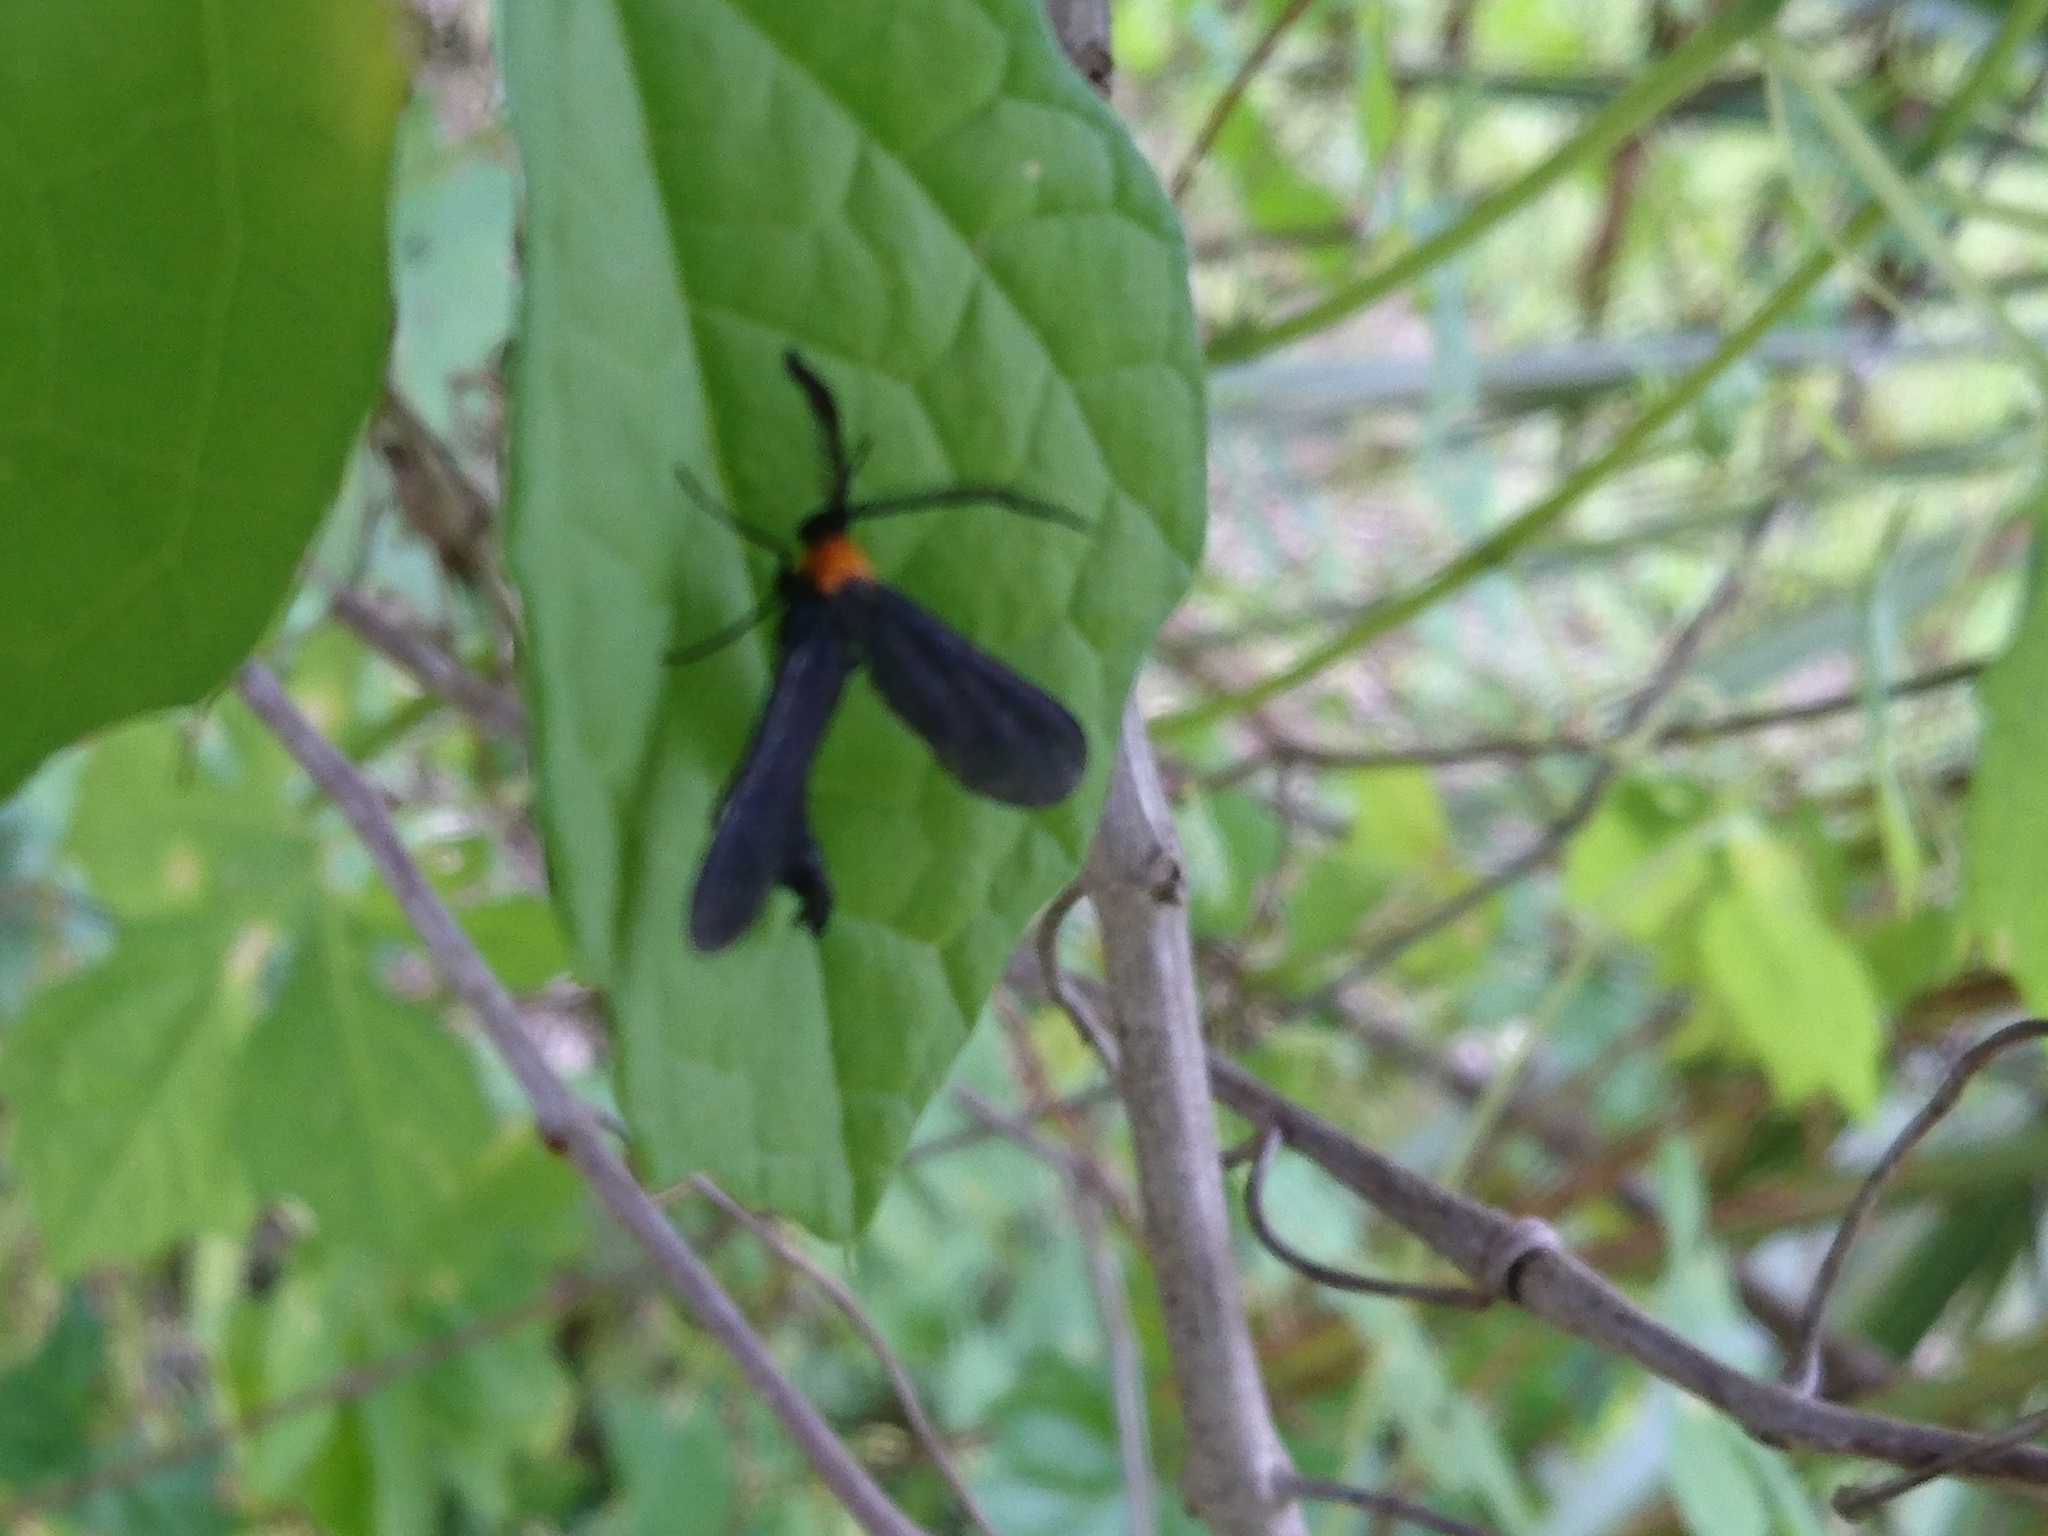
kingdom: Animalia
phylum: Arthropoda
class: Insecta
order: Lepidoptera
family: Zygaenidae
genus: Harrisina
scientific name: Harrisina americana
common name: Grapeleaf skeletonizer moth
